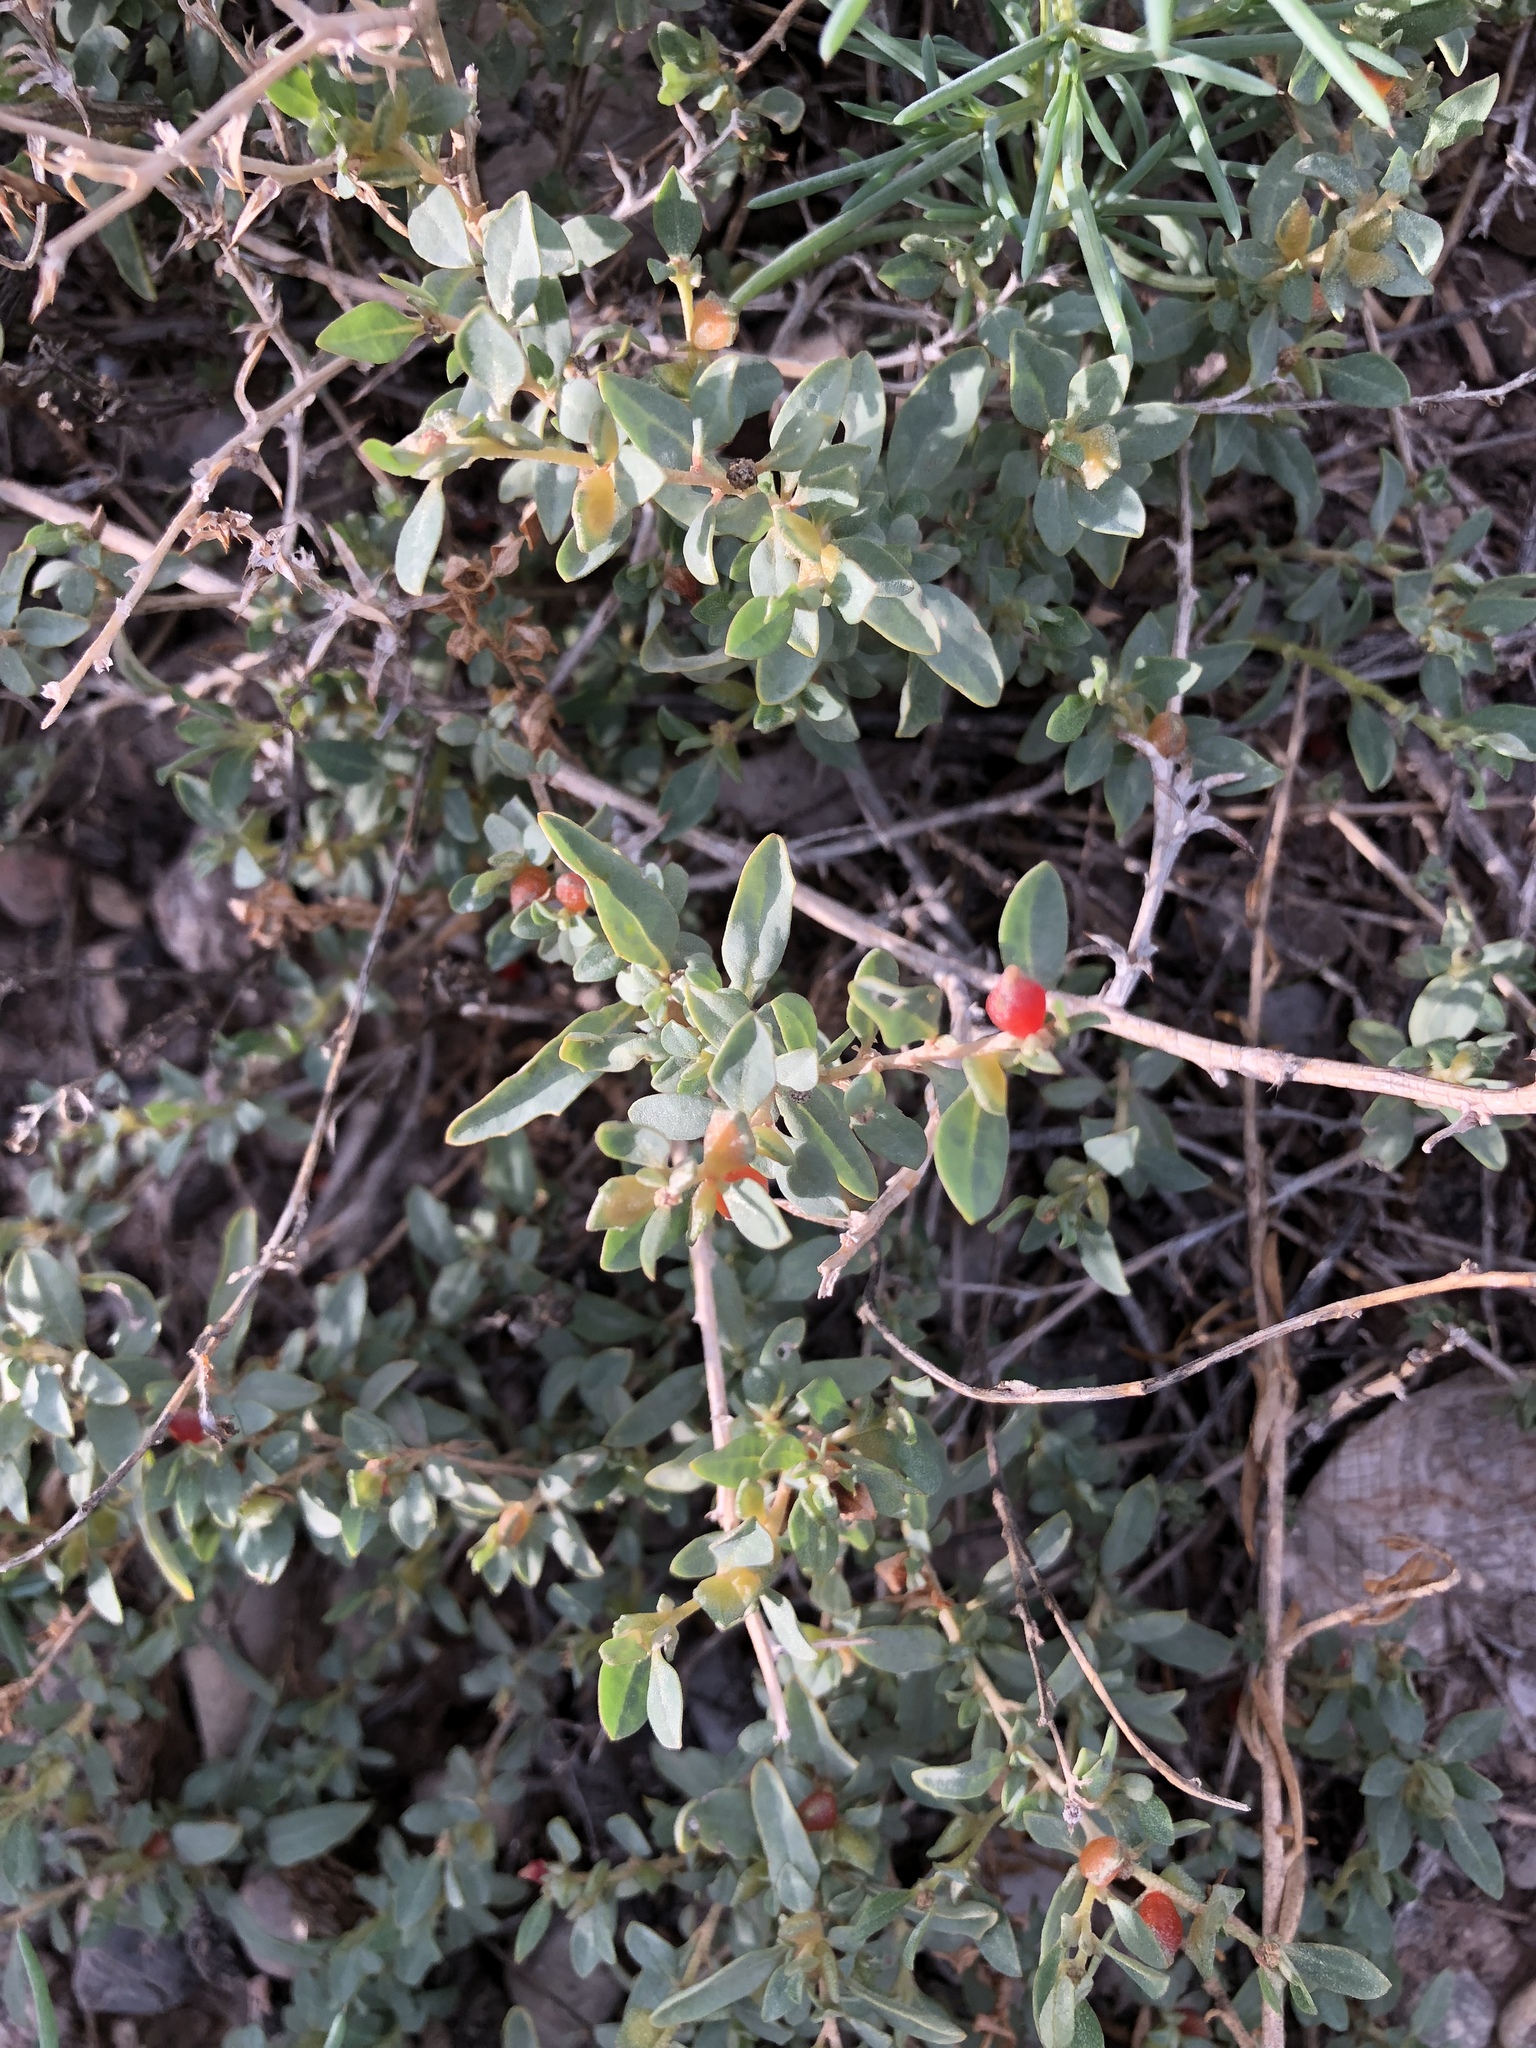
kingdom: Plantae
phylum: Tracheophyta
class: Magnoliopsida
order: Caryophyllales
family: Amaranthaceae
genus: Atriplex
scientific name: Atriplex semibaccata
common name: Australian saltbush
